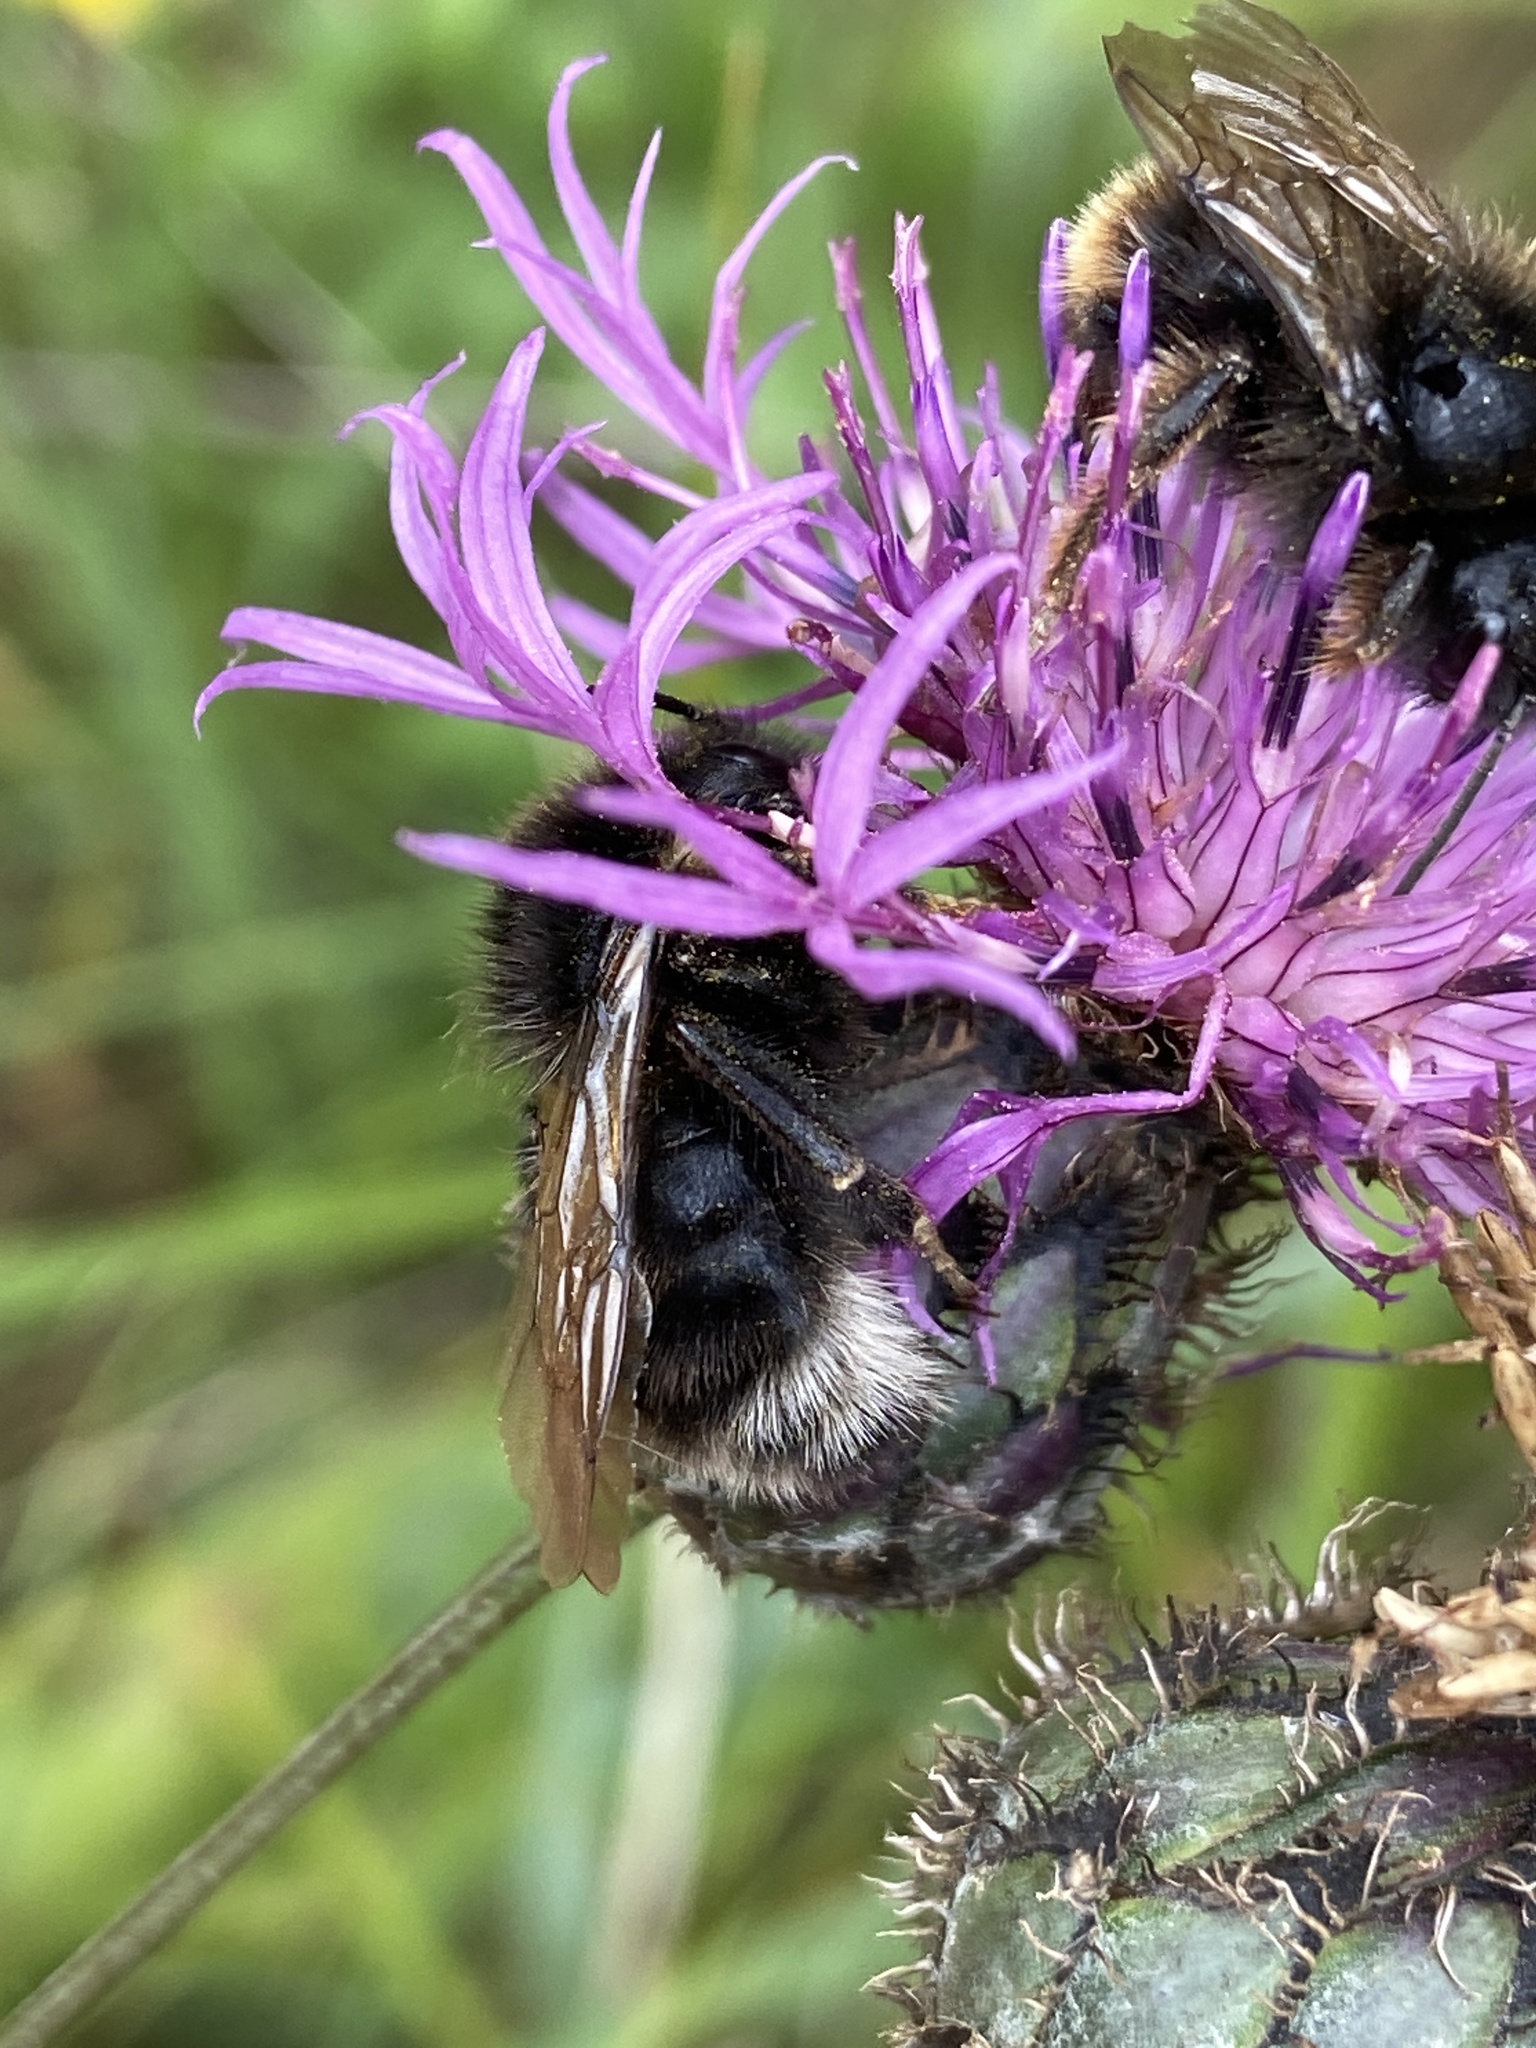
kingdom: Animalia
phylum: Arthropoda
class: Insecta
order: Hymenoptera
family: Apidae
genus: Bombus
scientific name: Bombus hypnorum
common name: New garden bumblebee
